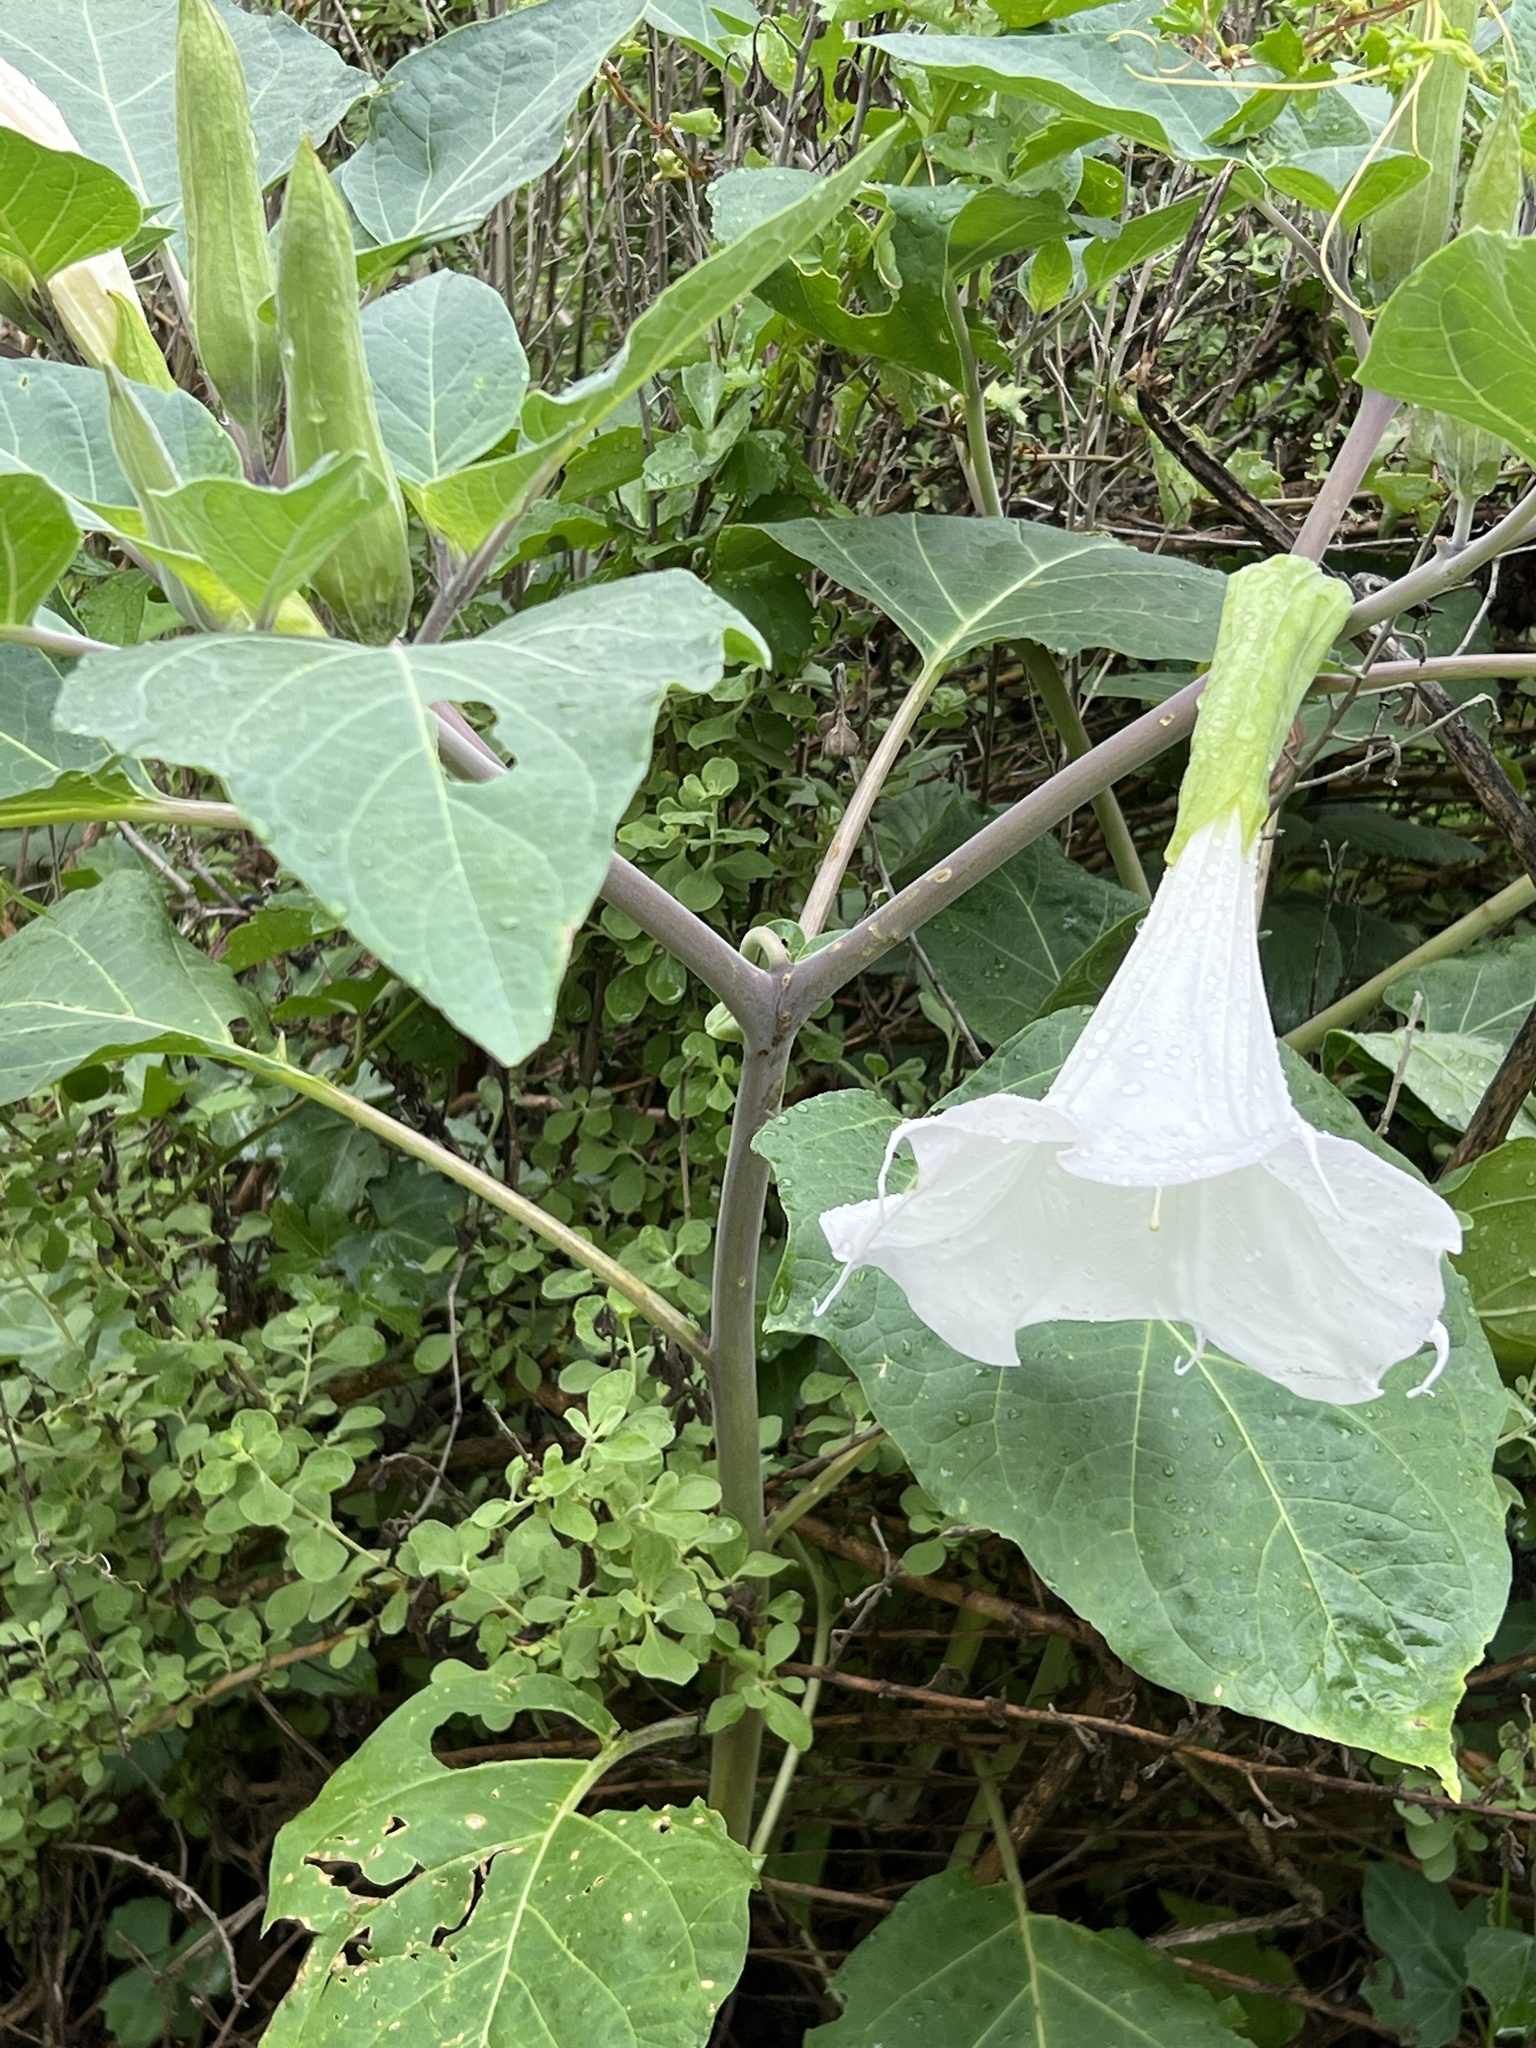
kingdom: Plantae
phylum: Tracheophyta
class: Magnoliopsida
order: Solanales
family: Solanaceae
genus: Datura
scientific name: Datura wrightii
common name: Sacred thorn-apple
